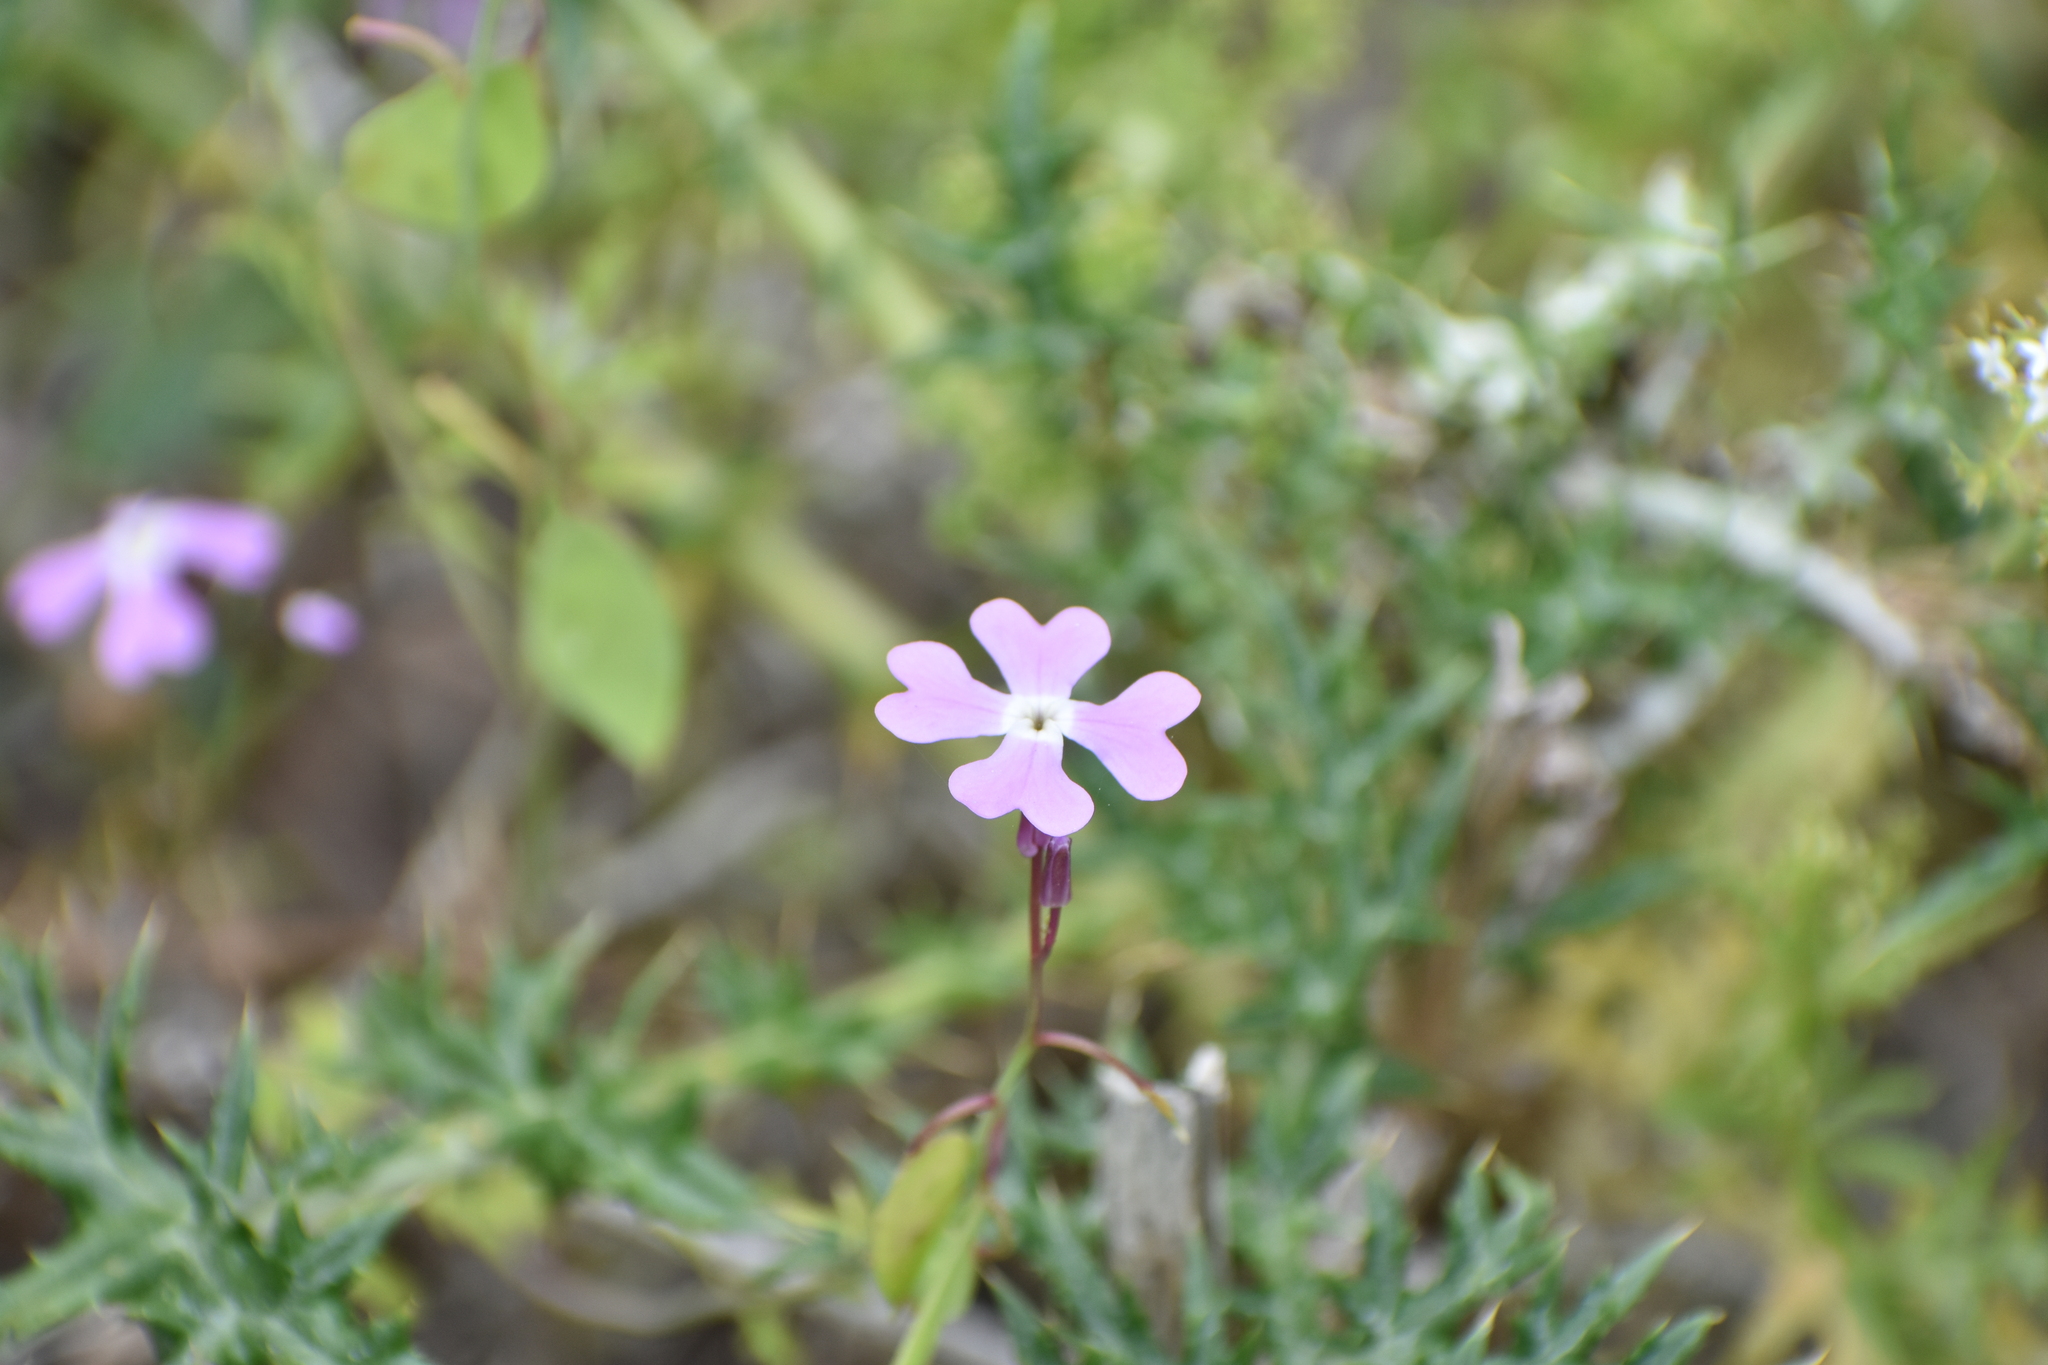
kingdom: Plantae
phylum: Tracheophyta
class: Magnoliopsida
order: Brassicales
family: Brassicaceae
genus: Ricotia
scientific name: Ricotia lunaria
